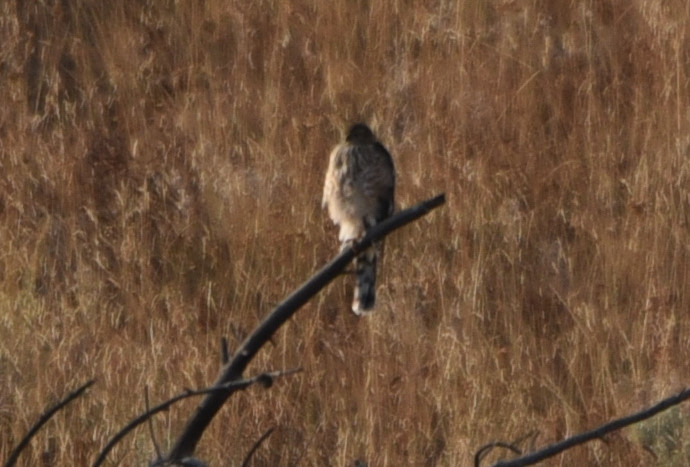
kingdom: Animalia
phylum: Chordata
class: Aves
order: Accipitriformes
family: Accipitridae
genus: Accipiter
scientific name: Accipiter cooperii
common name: Cooper's hawk
